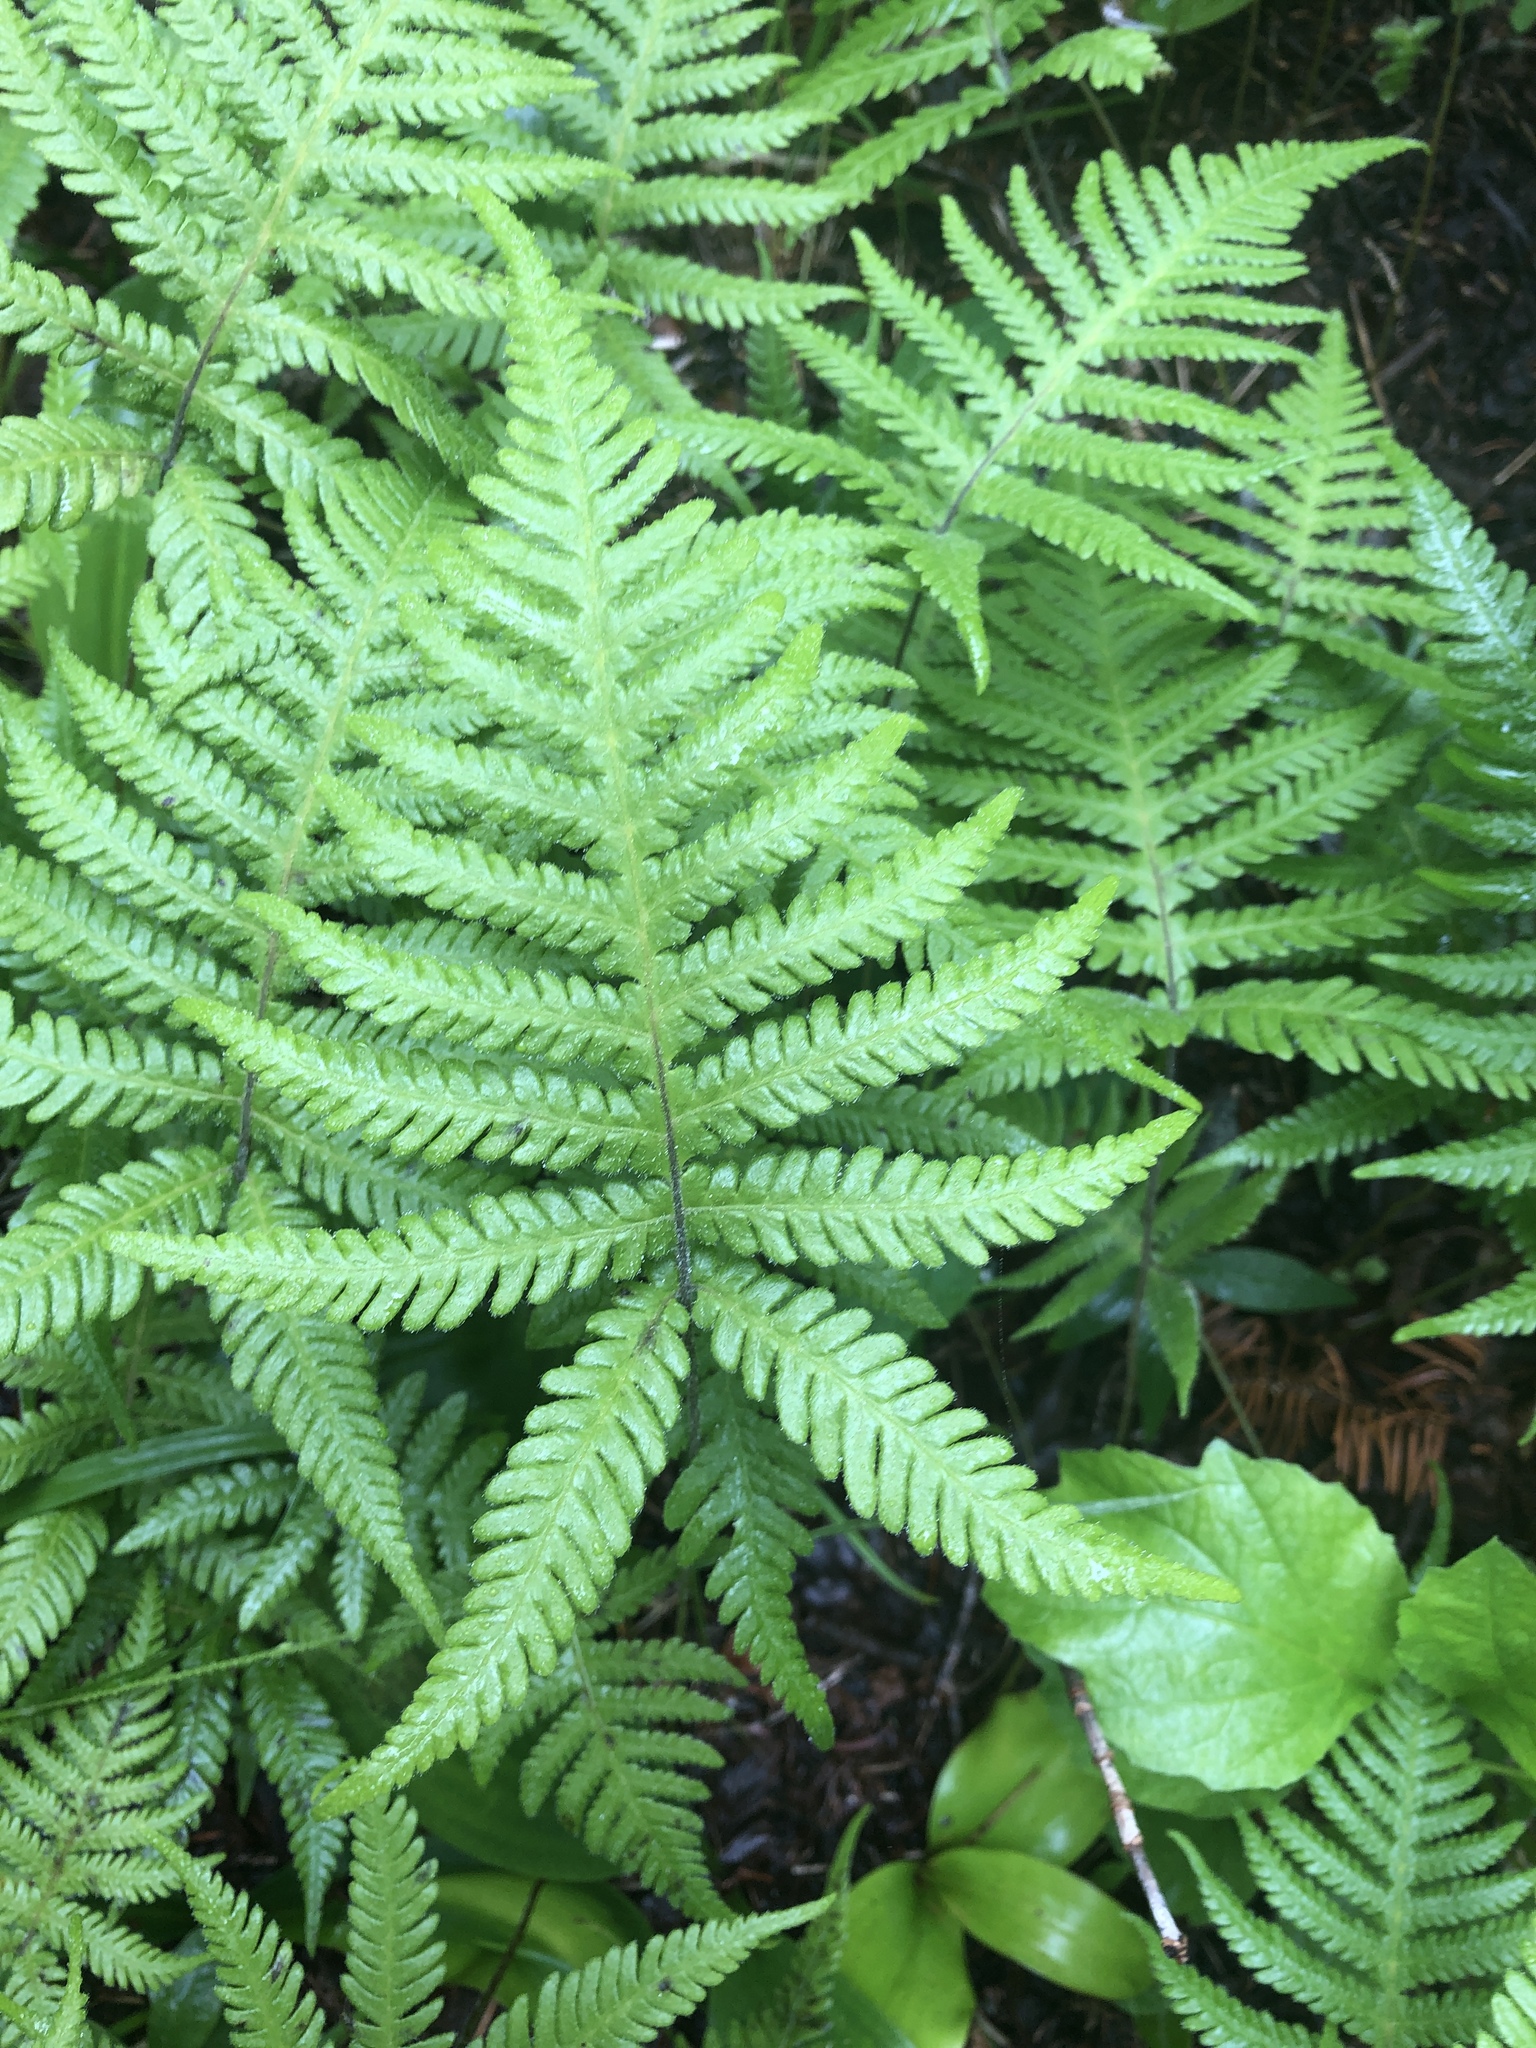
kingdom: Plantae
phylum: Tracheophyta
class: Polypodiopsida
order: Polypodiales
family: Thelypteridaceae
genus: Phegopteris
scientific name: Phegopteris connectilis
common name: Beech fern
